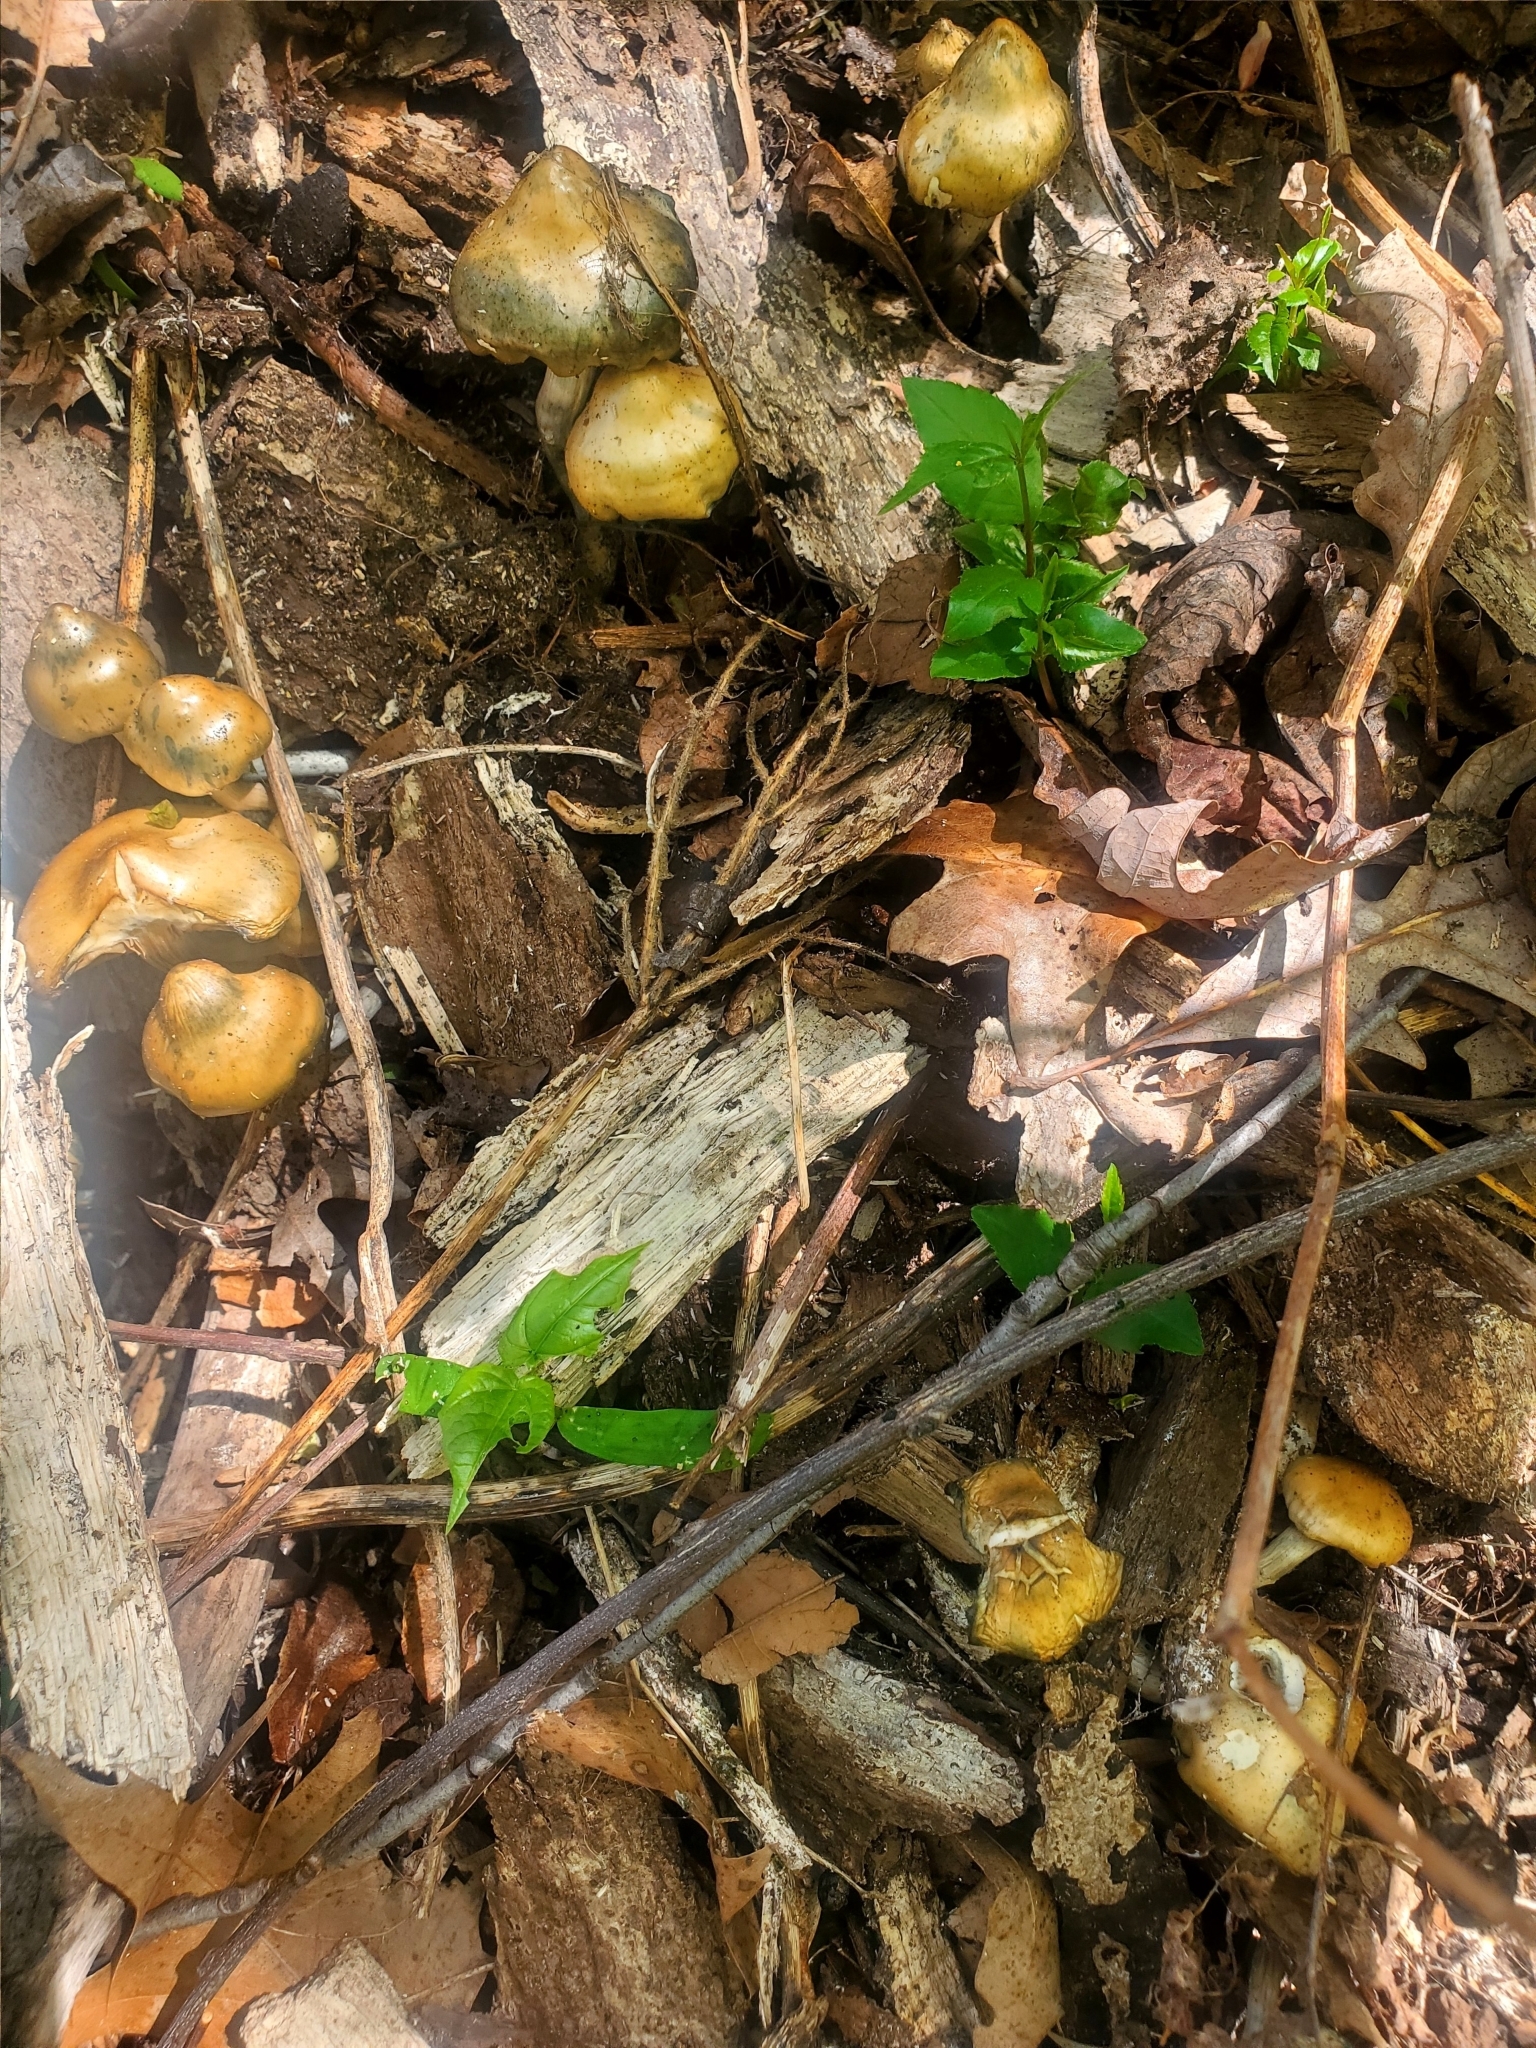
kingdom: Fungi
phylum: Basidiomycota
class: Agaricomycetes
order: Agaricales
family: Hymenogastraceae
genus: Psilocybe
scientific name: Psilocybe ovoideocystidiata
